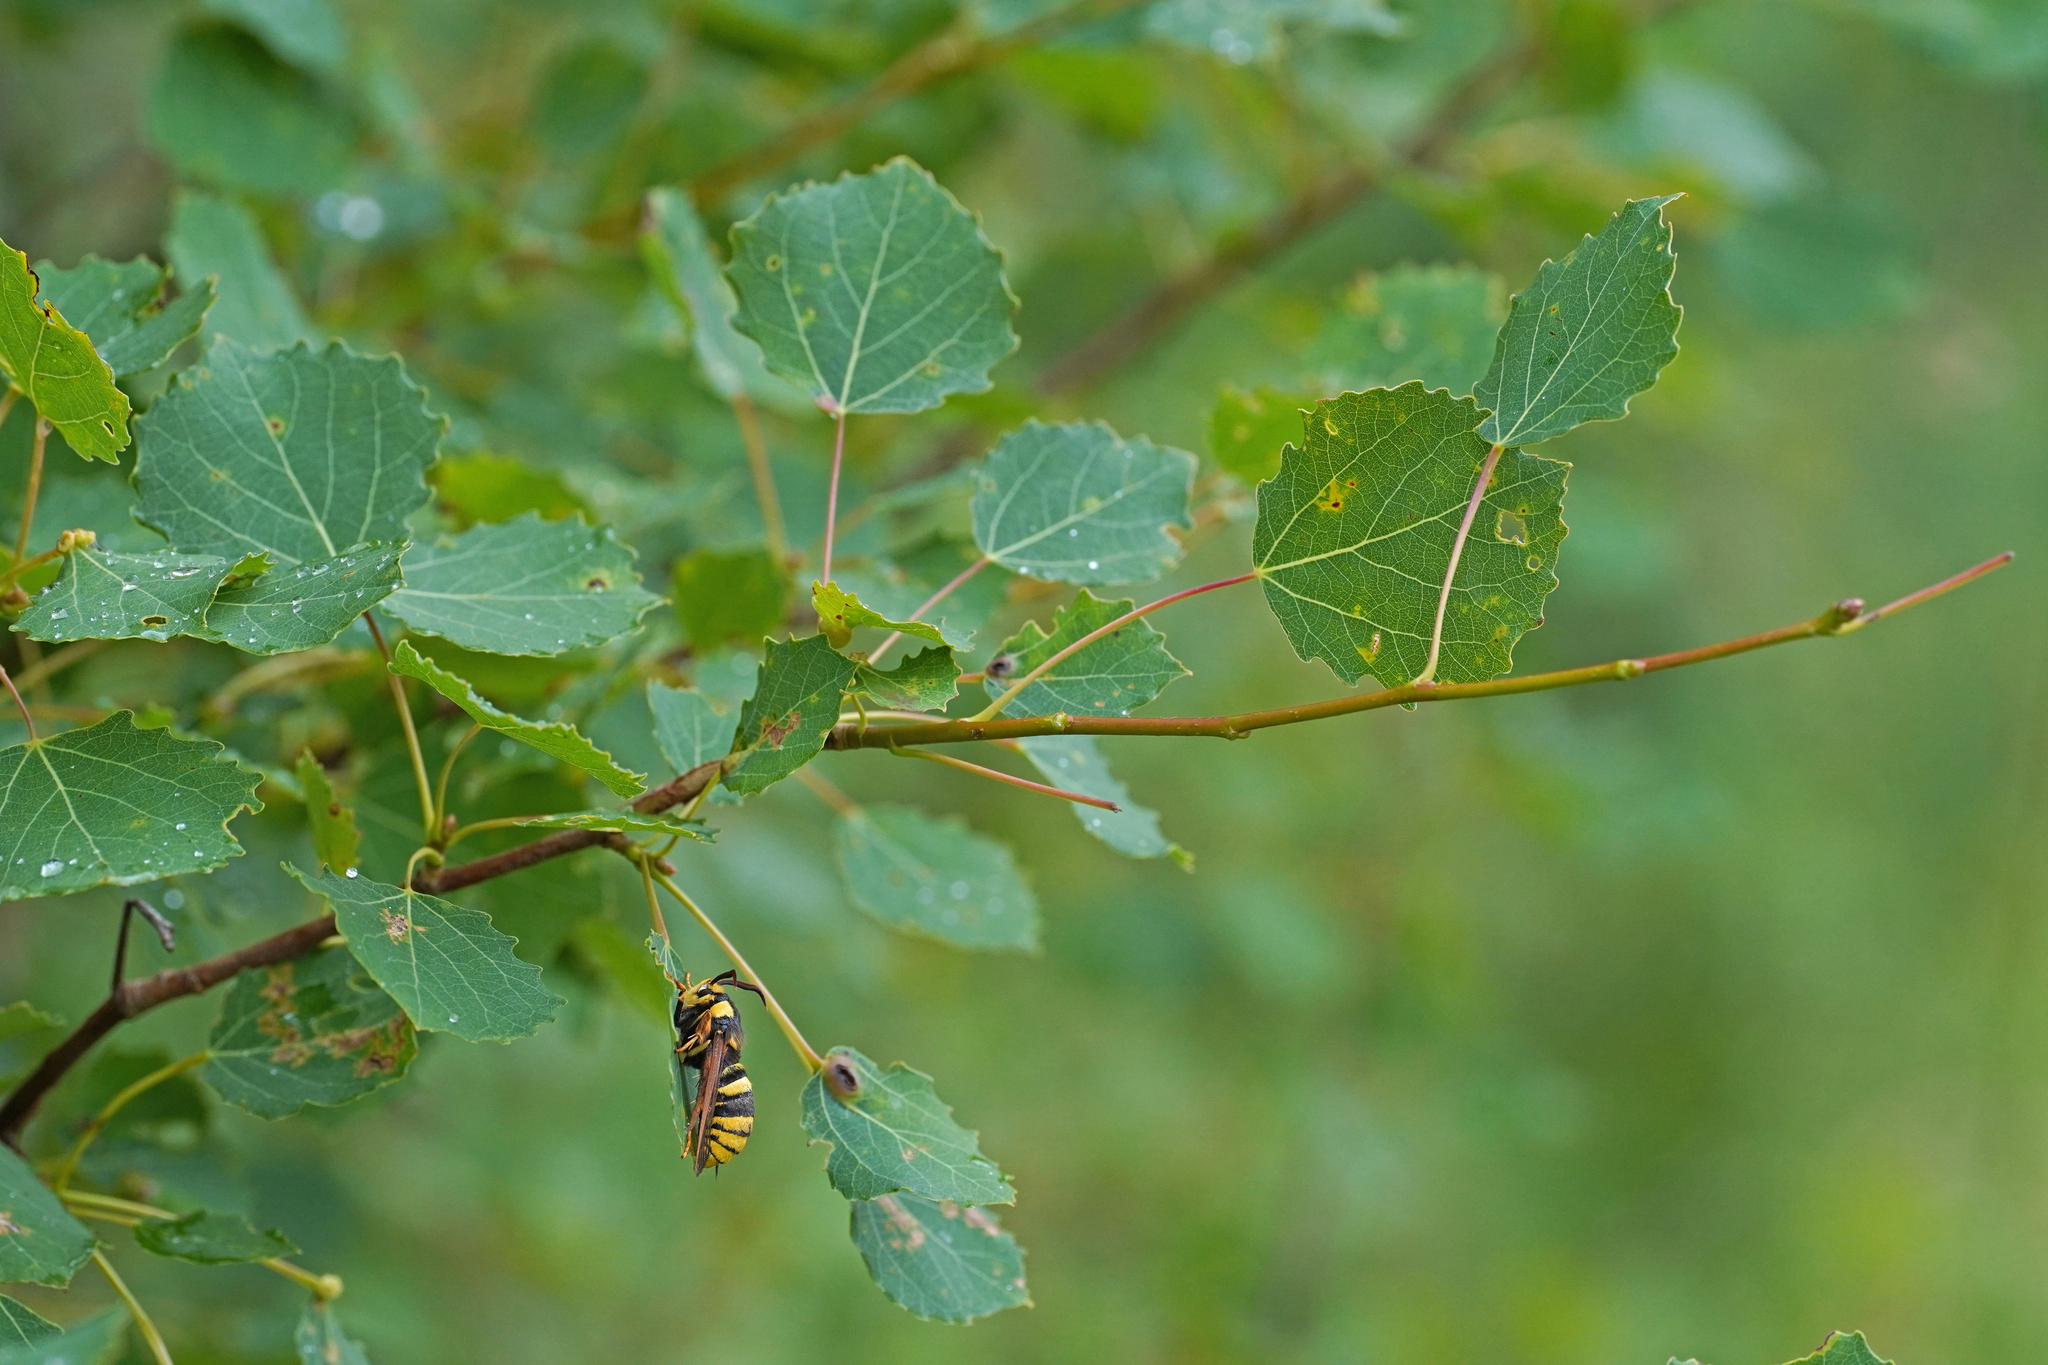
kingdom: Animalia
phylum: Arthropoda
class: Insecta
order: Lepidoptera
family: Sesiidae
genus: Sesia
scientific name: Sesia apiformis
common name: Hornet moth
